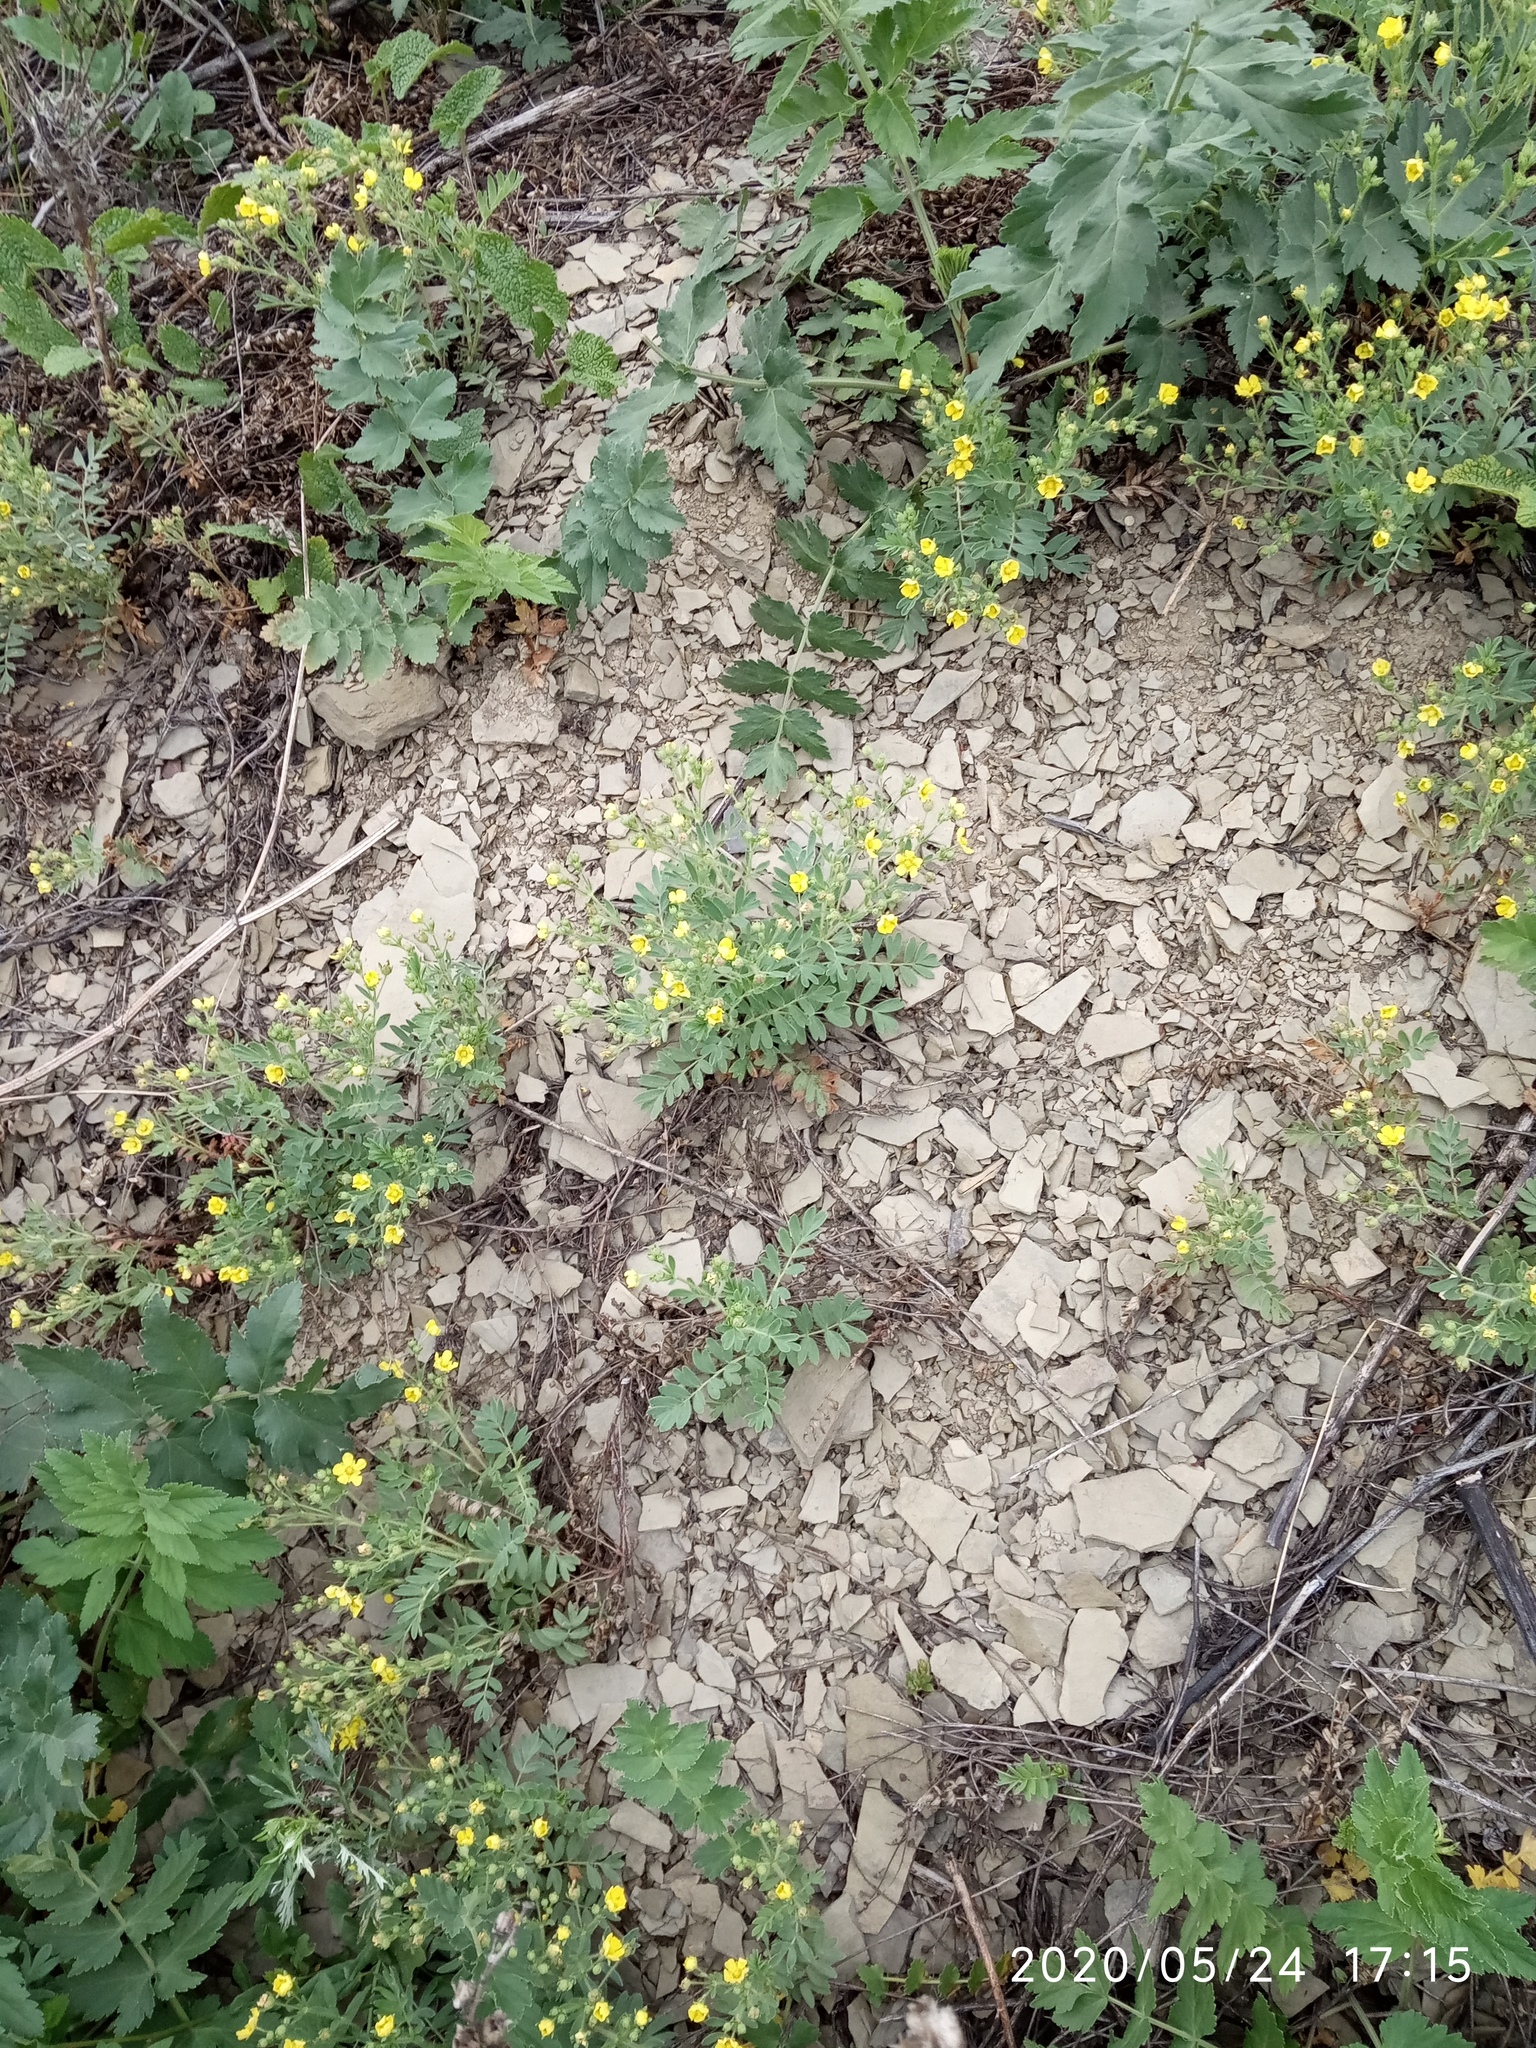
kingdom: Plantae
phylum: Tracheophyta
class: Magnoliopsida
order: Rosales
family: Rosaceae
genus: Sibbaldianthe
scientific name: Sibbaldianthe bifurca
